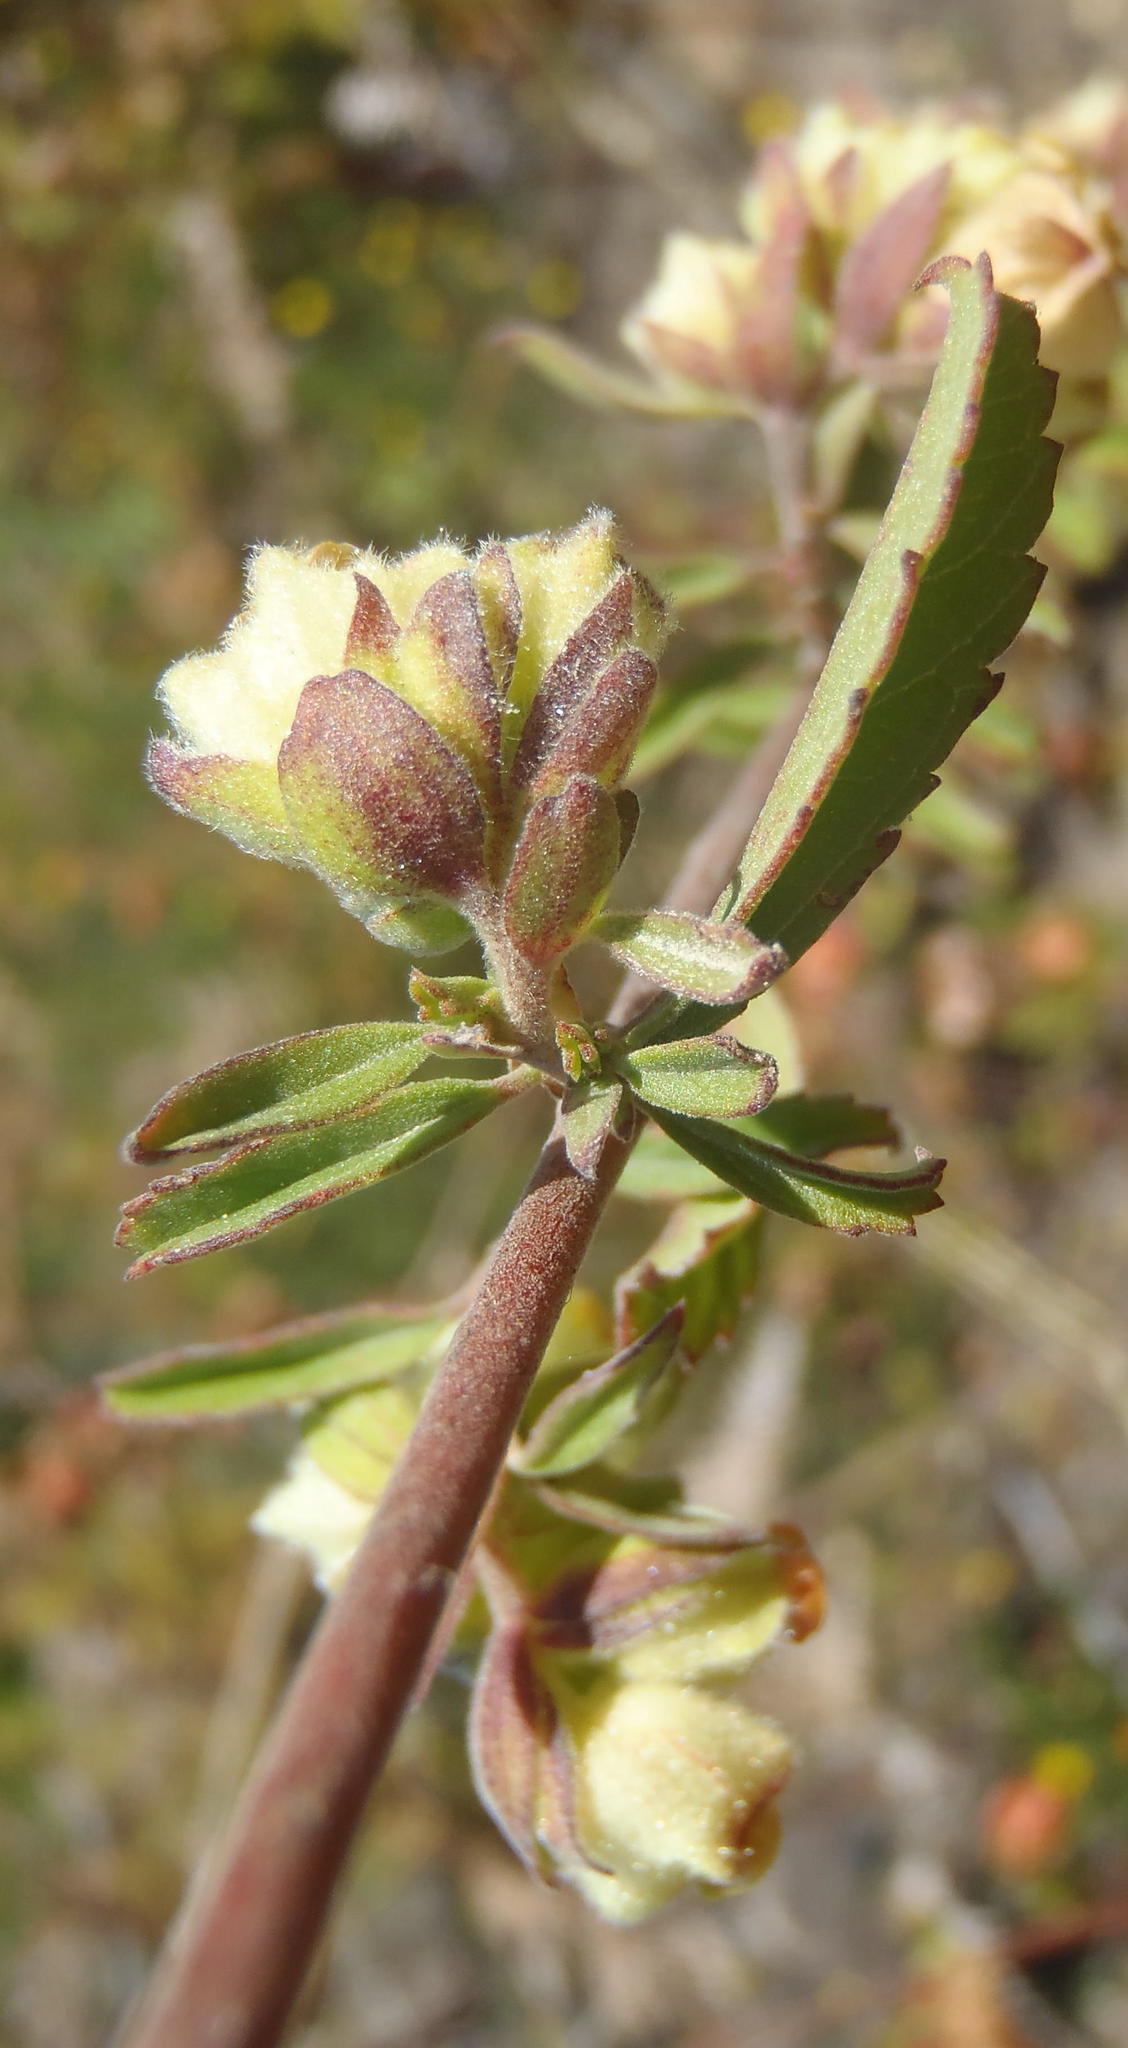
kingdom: Plantae
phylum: Tracheophyta
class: Magnoliopsida
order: Malvales
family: Malvaceae
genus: Hermannia
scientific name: Hermannia hyssopifolia
